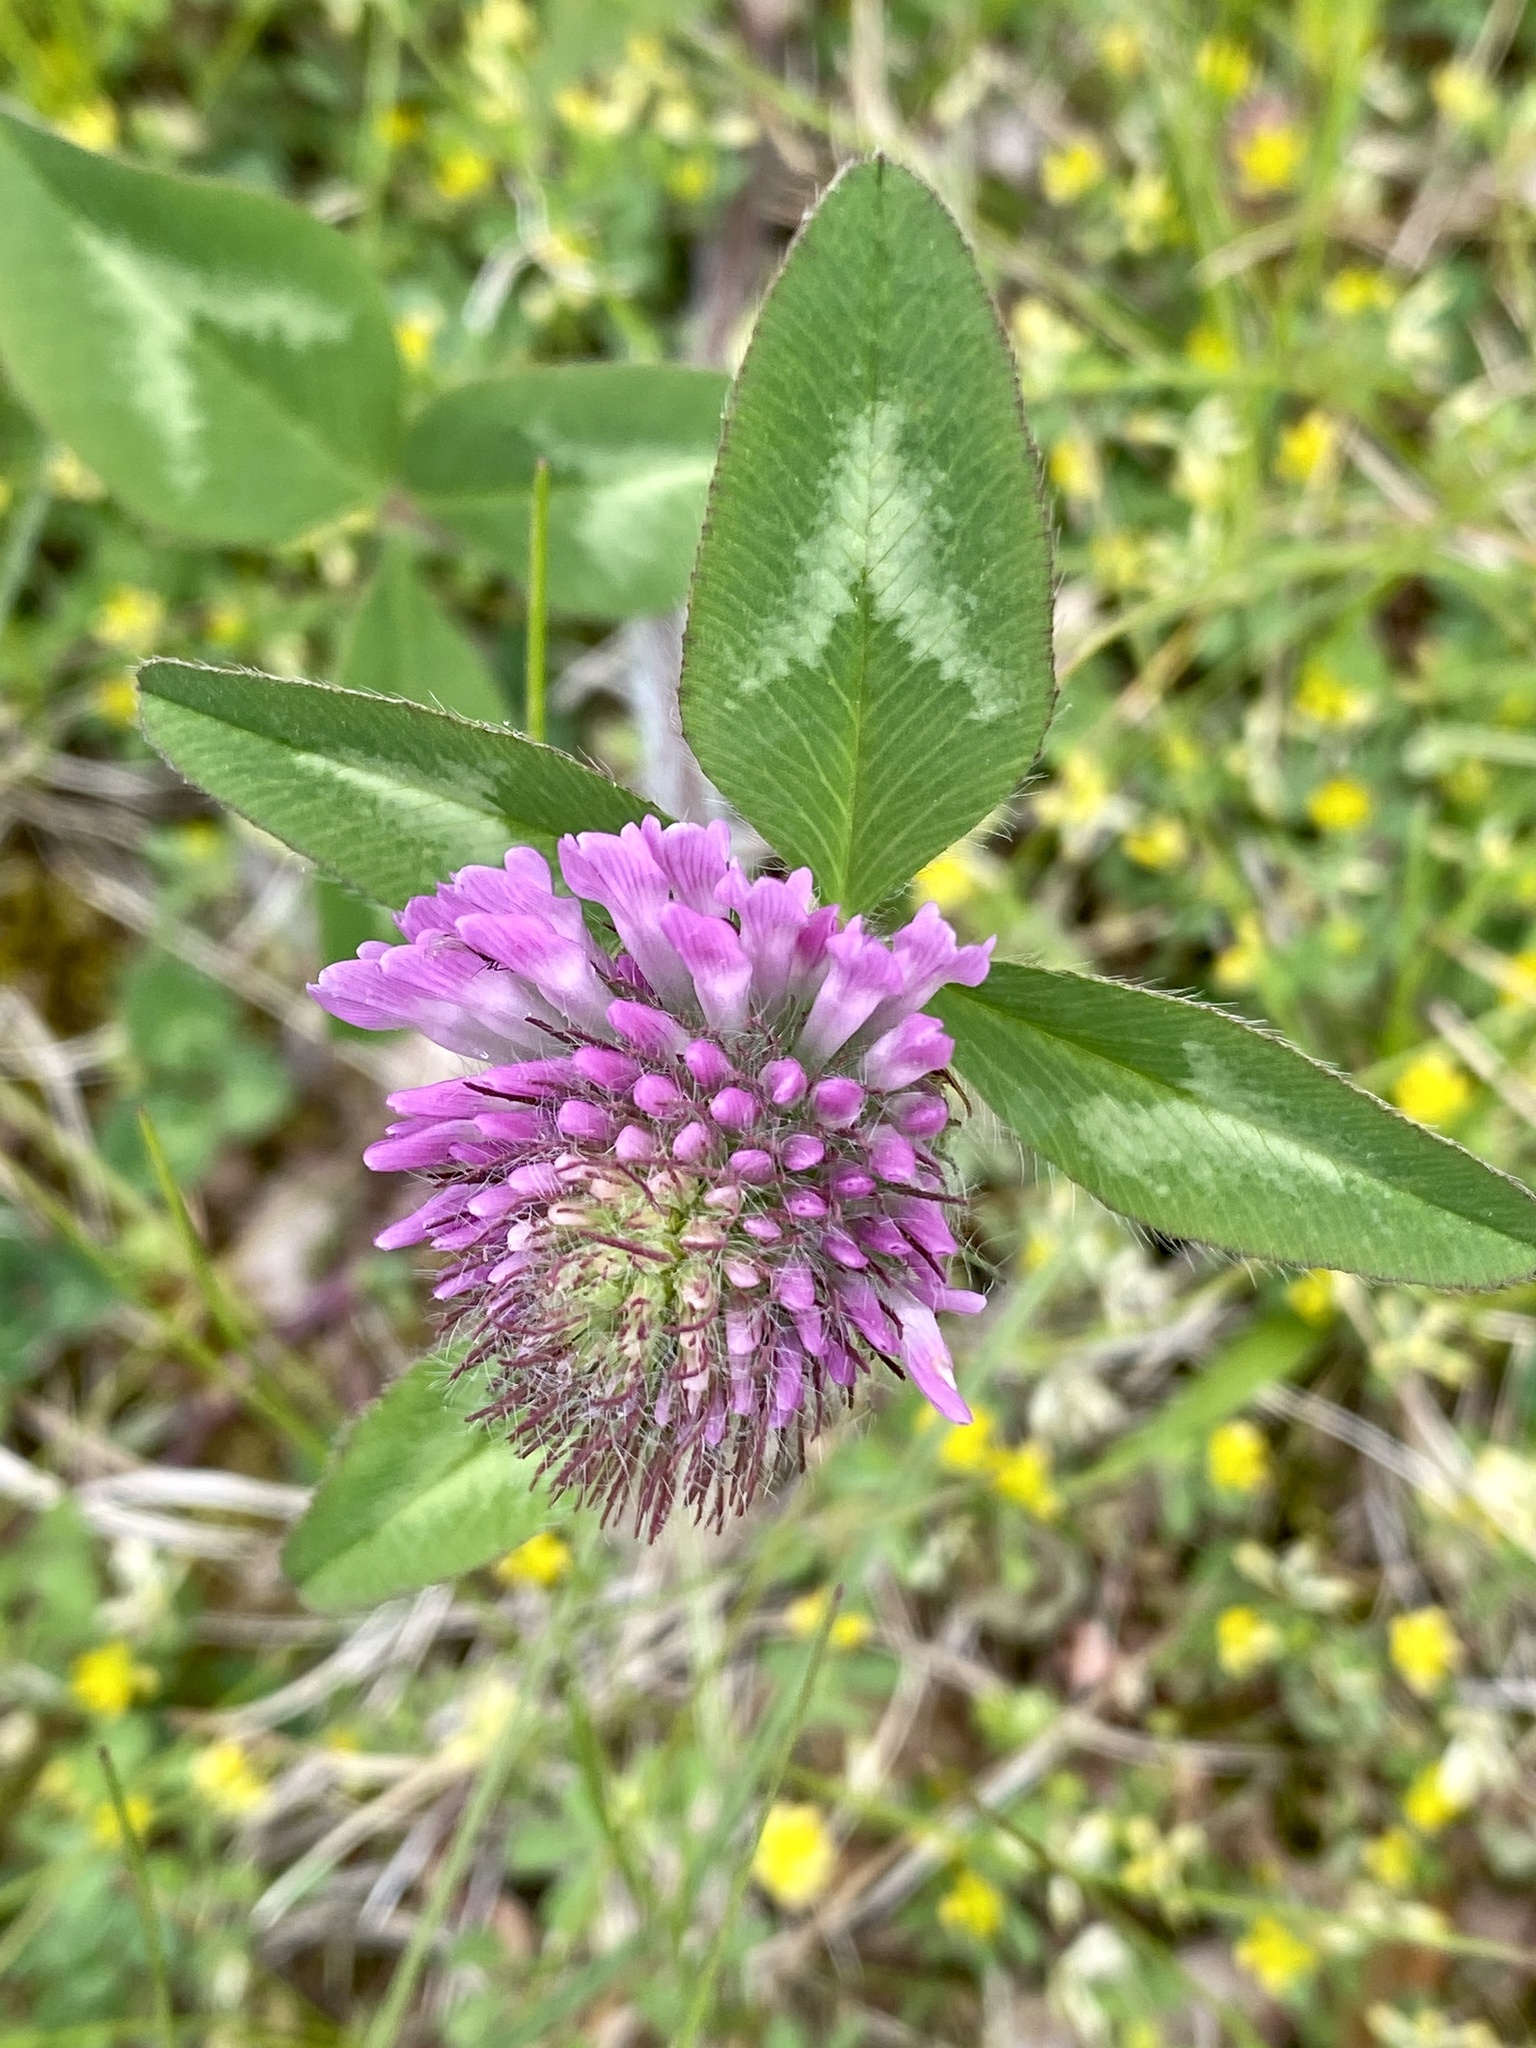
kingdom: Plantae
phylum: Tracheophyta
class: Magnoliopsida
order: Fabales
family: Fabaceae
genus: Trifolium
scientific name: Trifolium pratense
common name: Red clover
